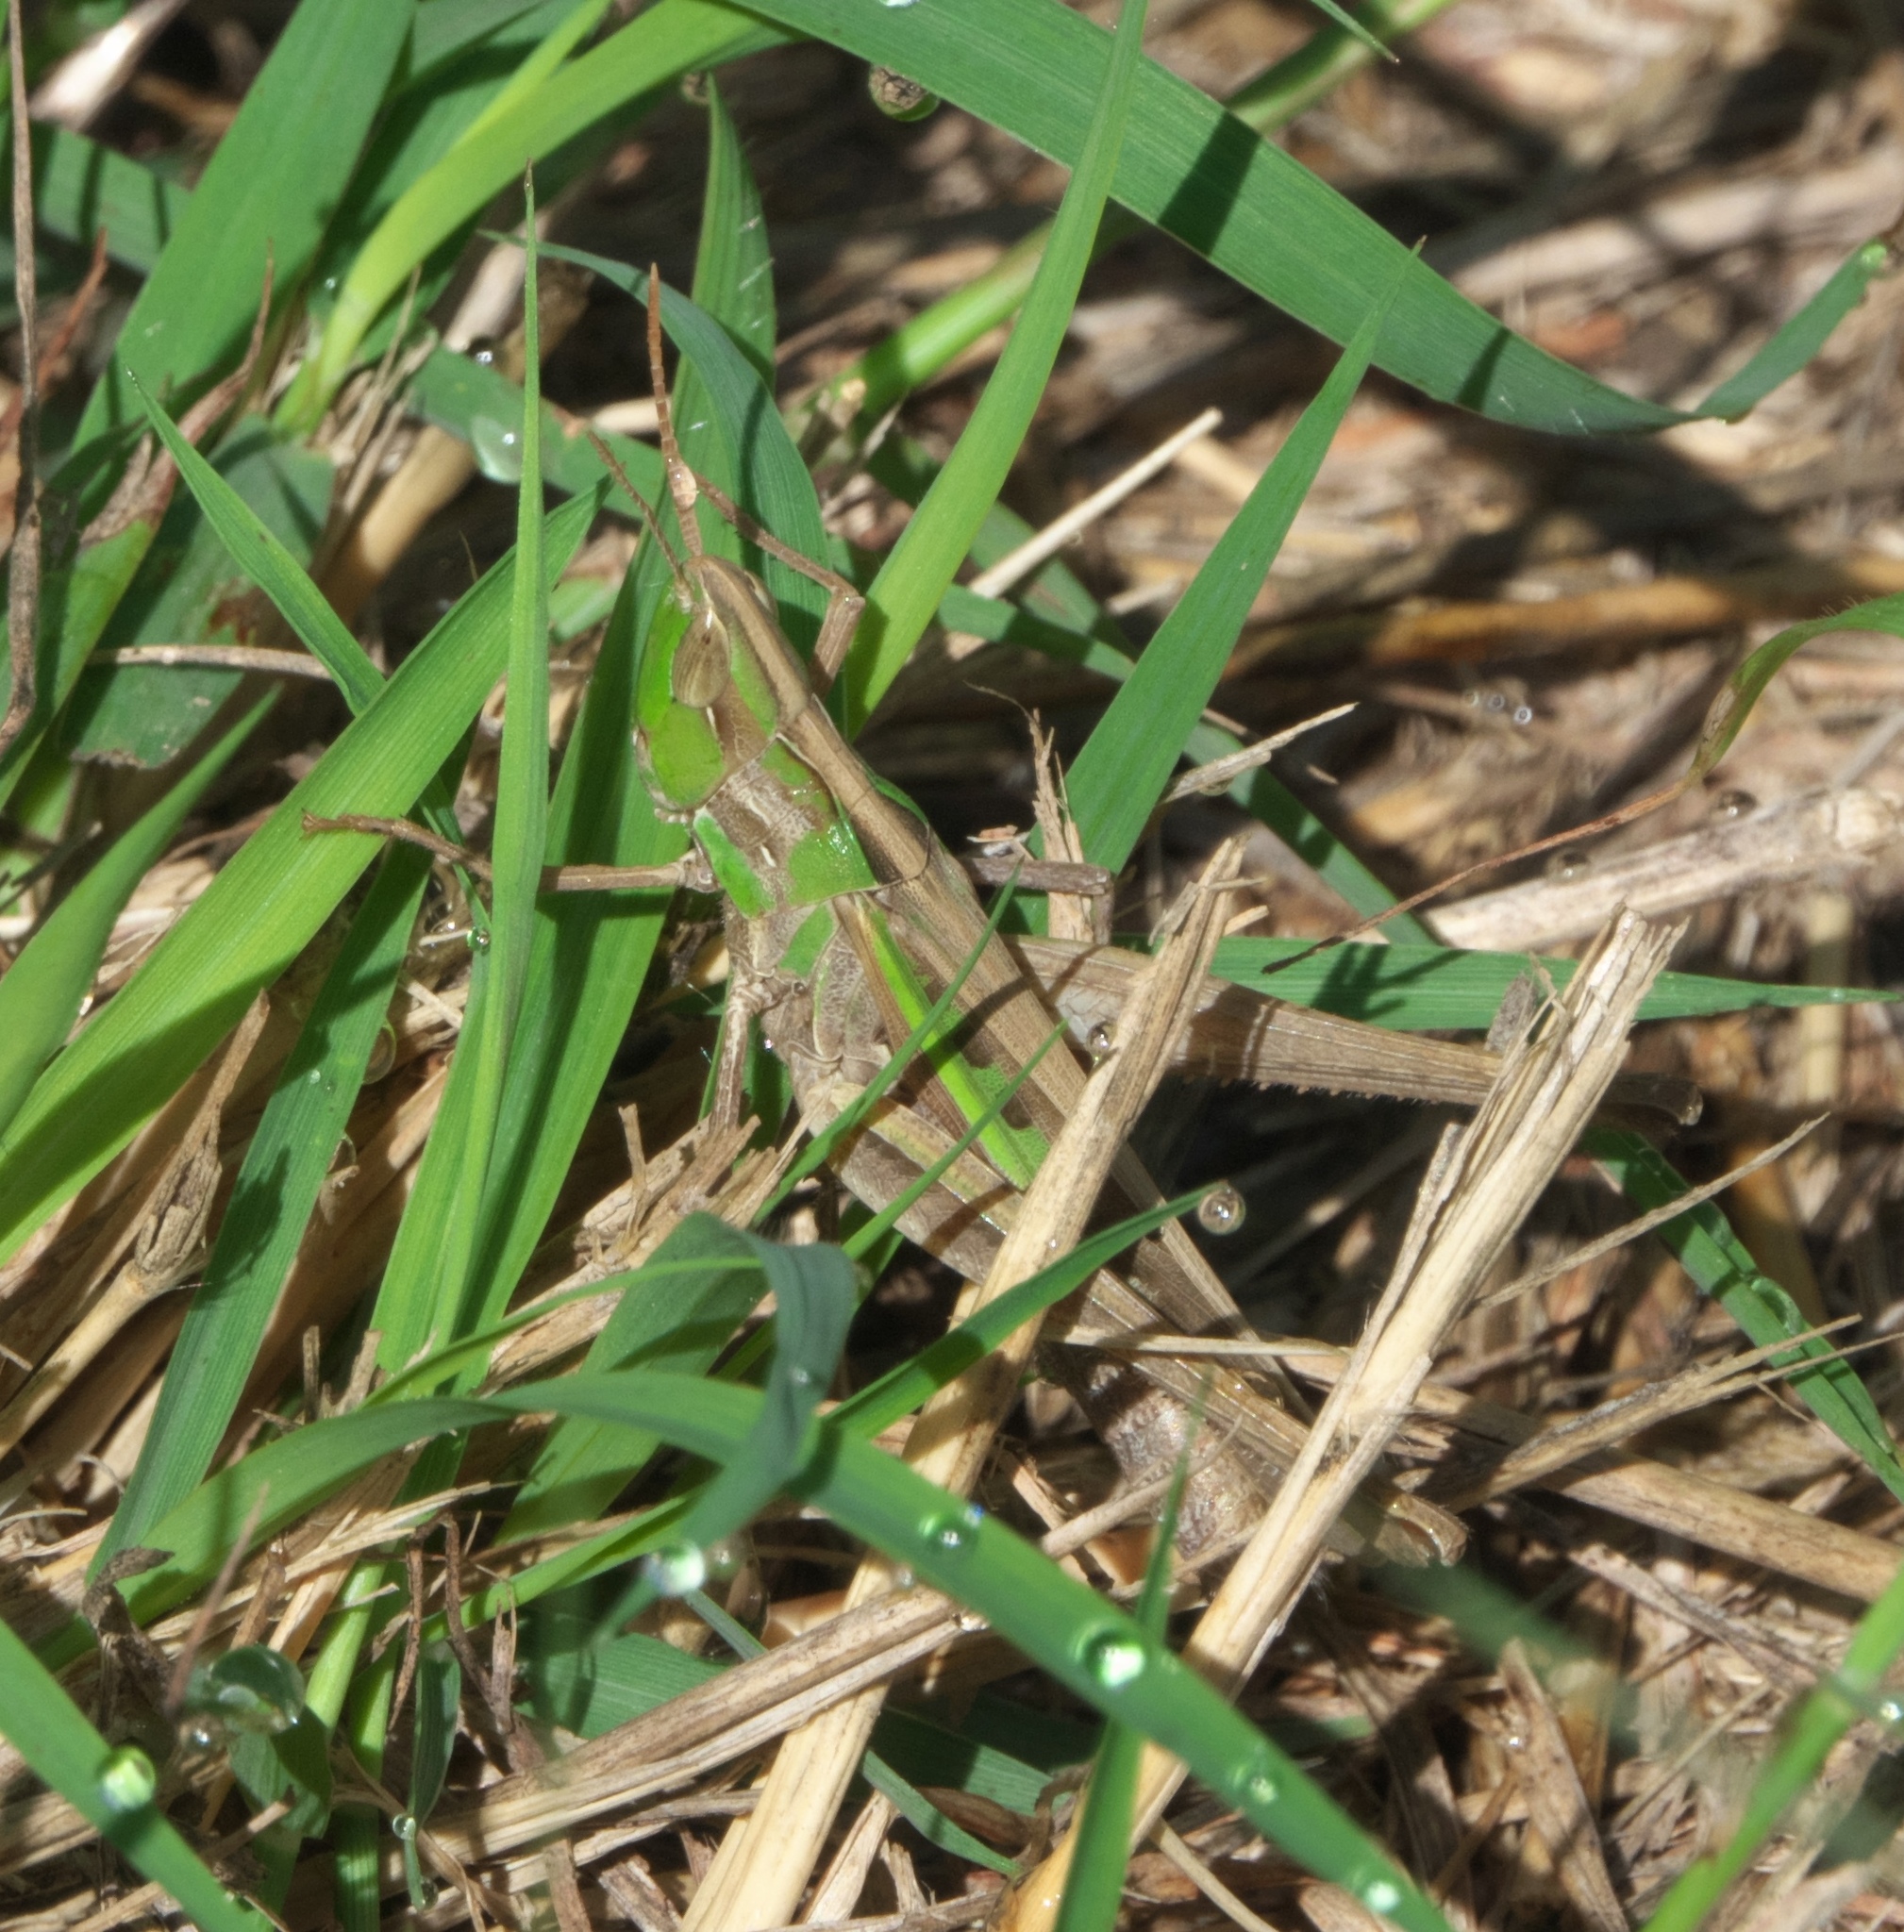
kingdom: Animalia
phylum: Arthropoda
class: Insecta
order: Orthoptera
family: Acrididae
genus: Syrbula
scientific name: Syrbula montezuma
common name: Montezuma's grasshopper
